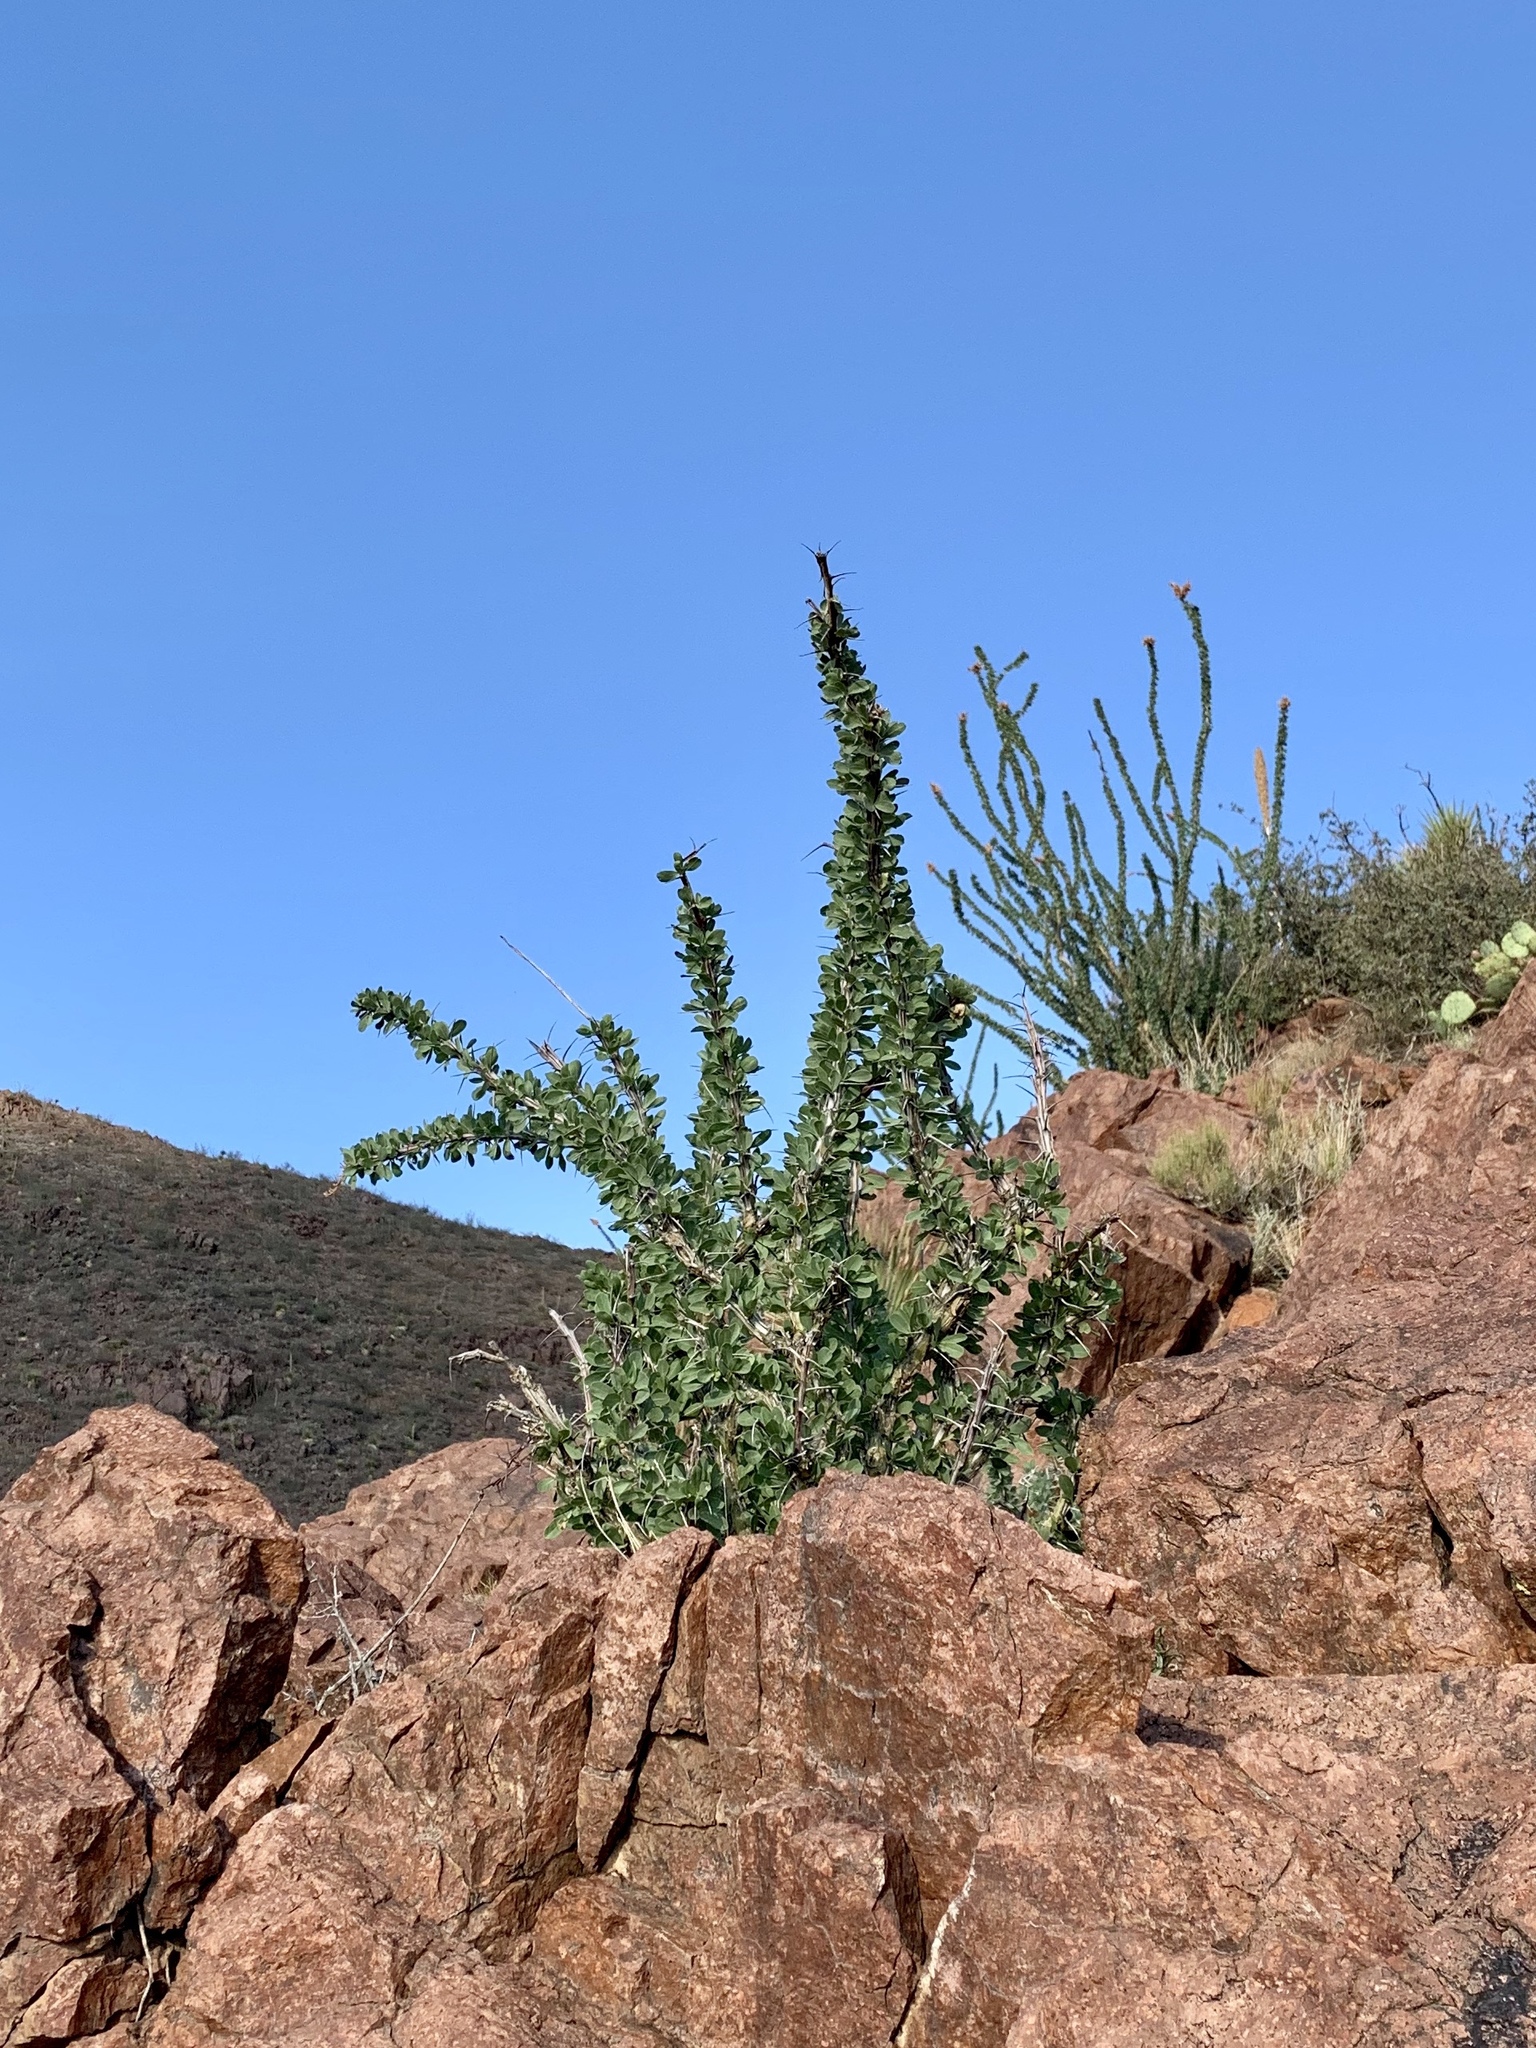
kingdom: Plantae
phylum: Tracheophyta
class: Magnoliopsida
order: Ericales
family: Fouquieriaceae
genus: Fouquieria
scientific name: Fouquieria splendens
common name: Vine-cactus
